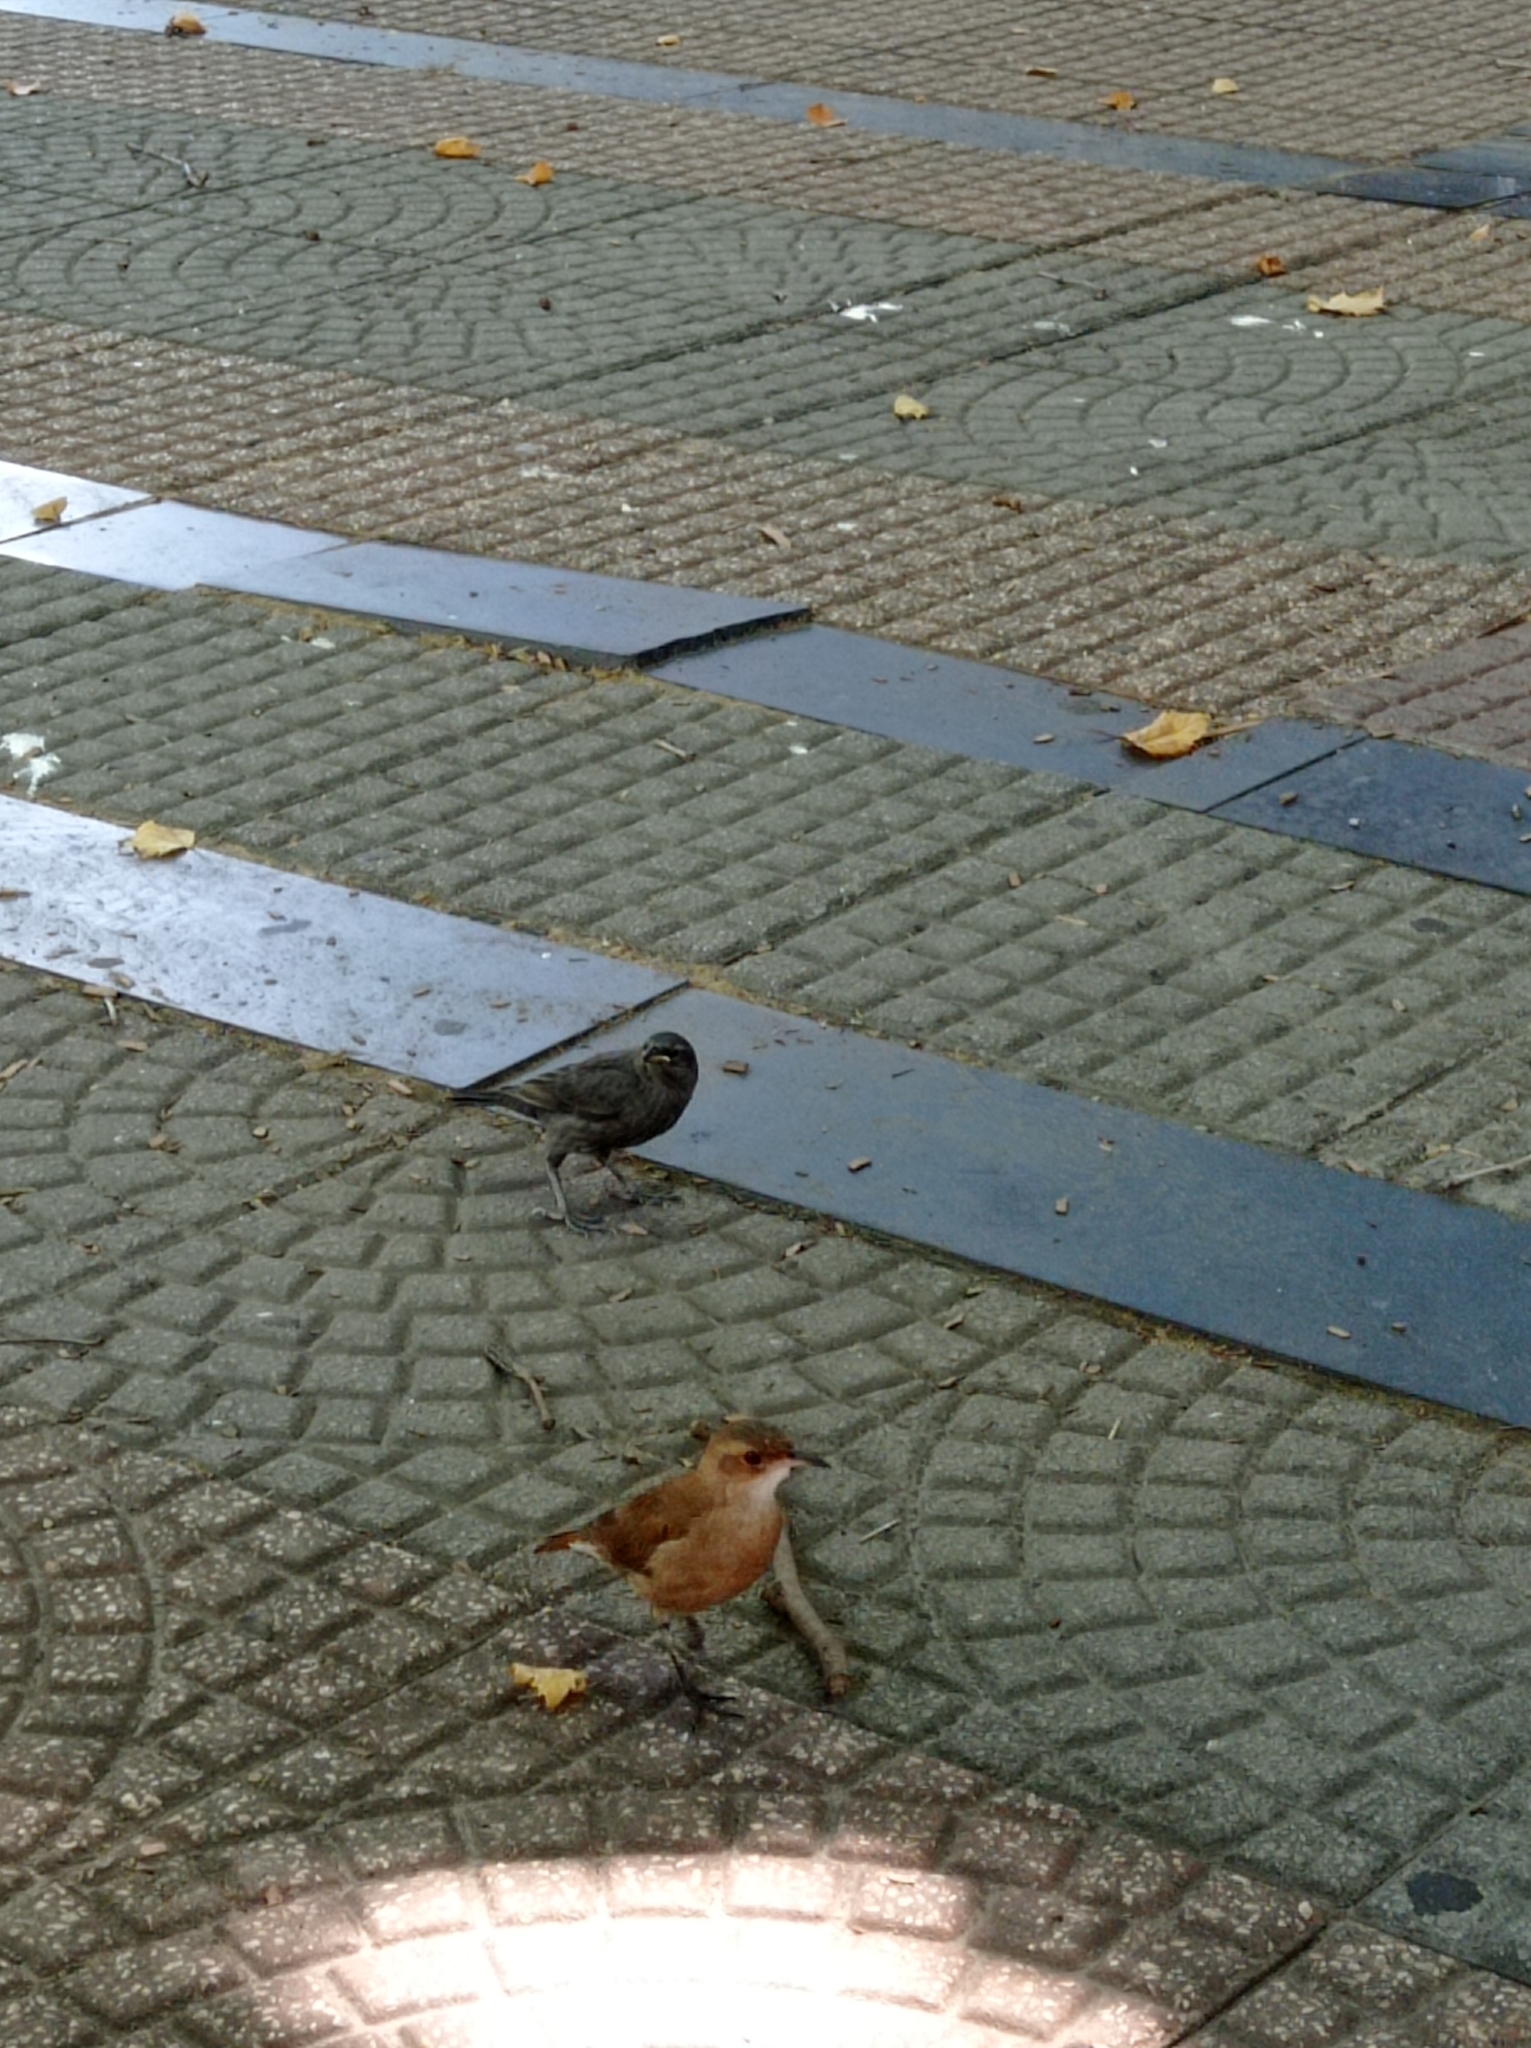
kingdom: Animalia
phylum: Chordata
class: Aves
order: Passeriformes
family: Furnariidae
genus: Furnarius
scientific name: Furnarius rufus
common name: Rufous hornero
